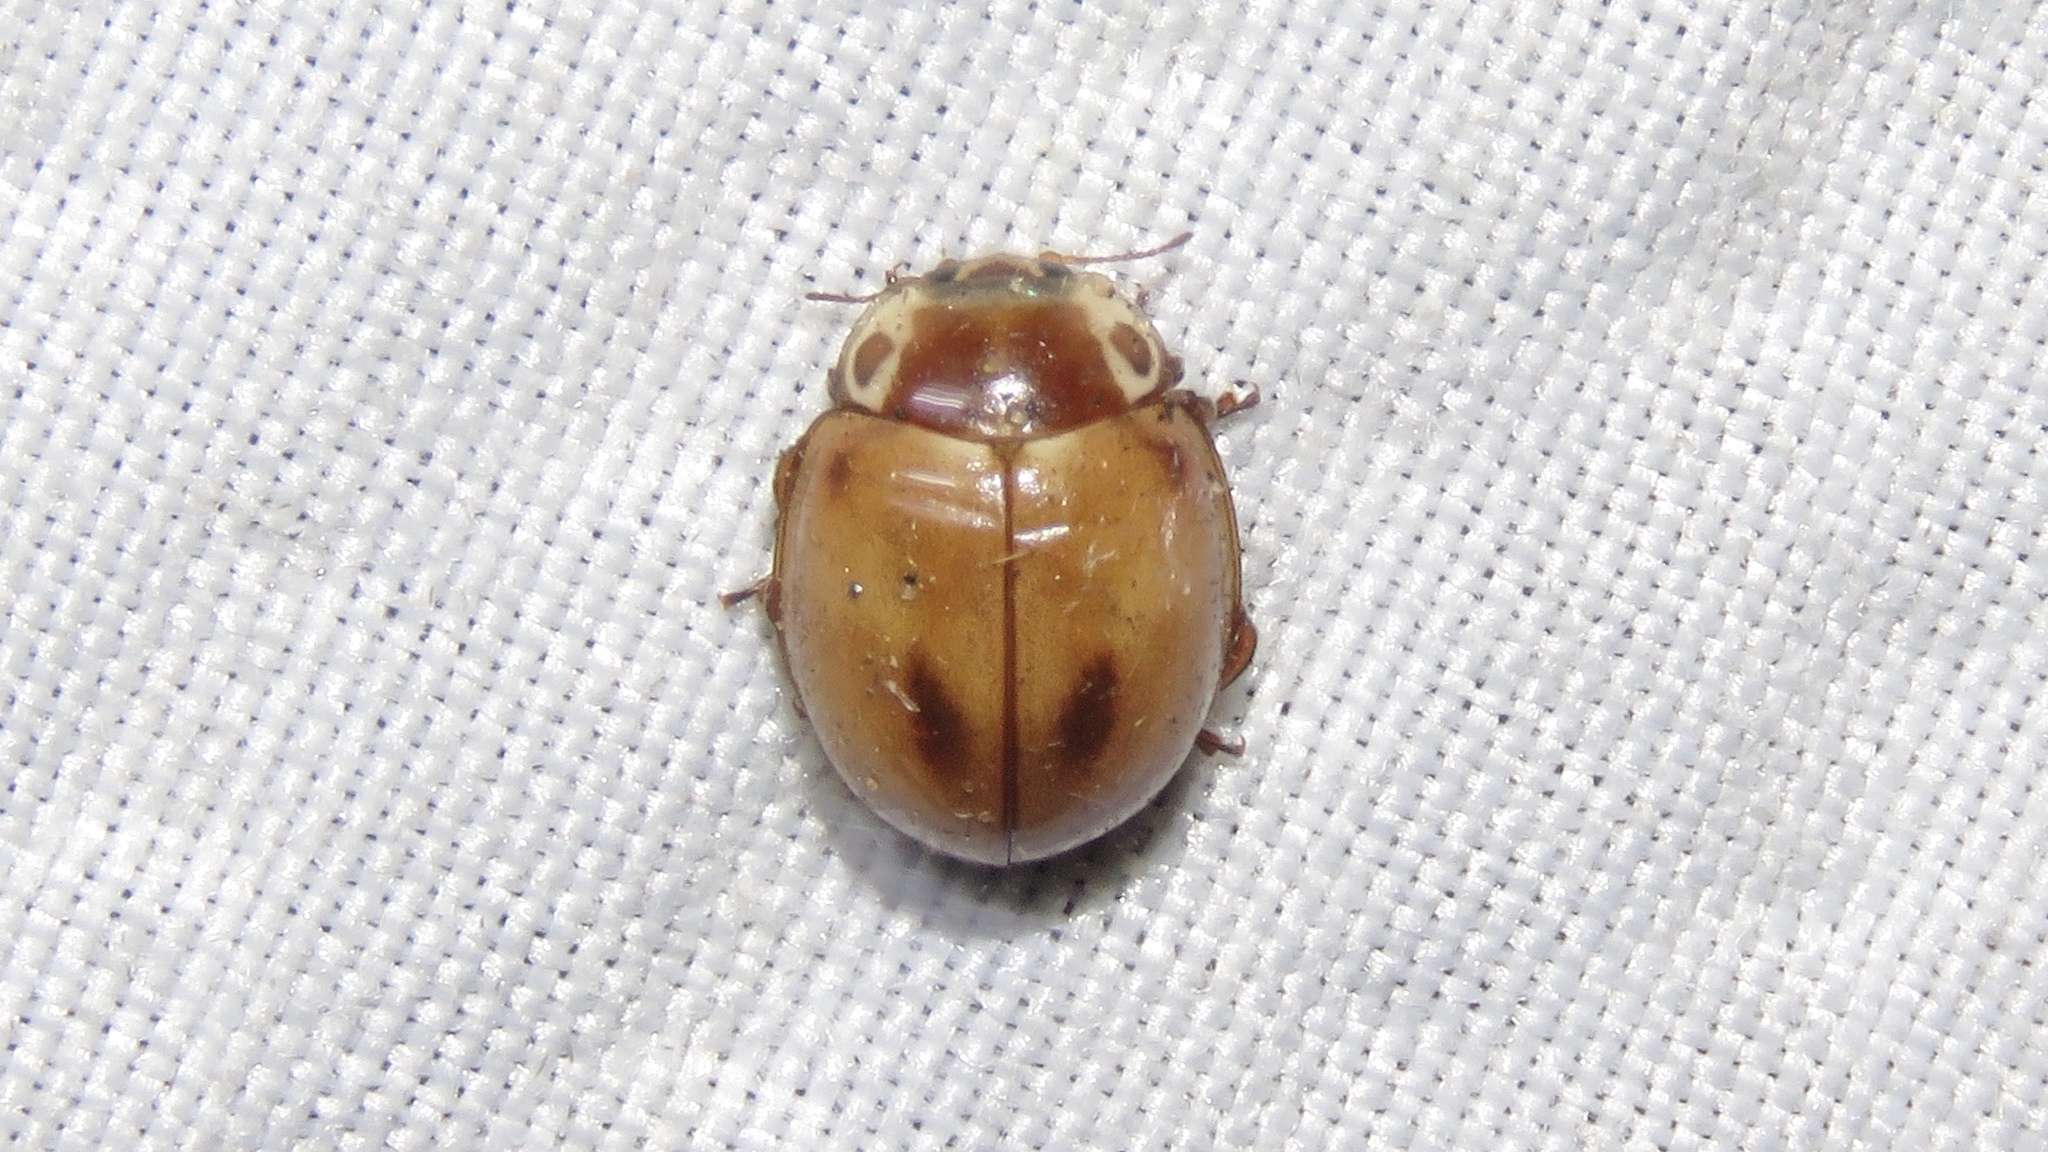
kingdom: Animalia
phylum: Arthropoda
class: Insecta
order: Coleoptera
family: Coccinellidae
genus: Myzia
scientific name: Myzia pullata
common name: Streaked lady beetle
